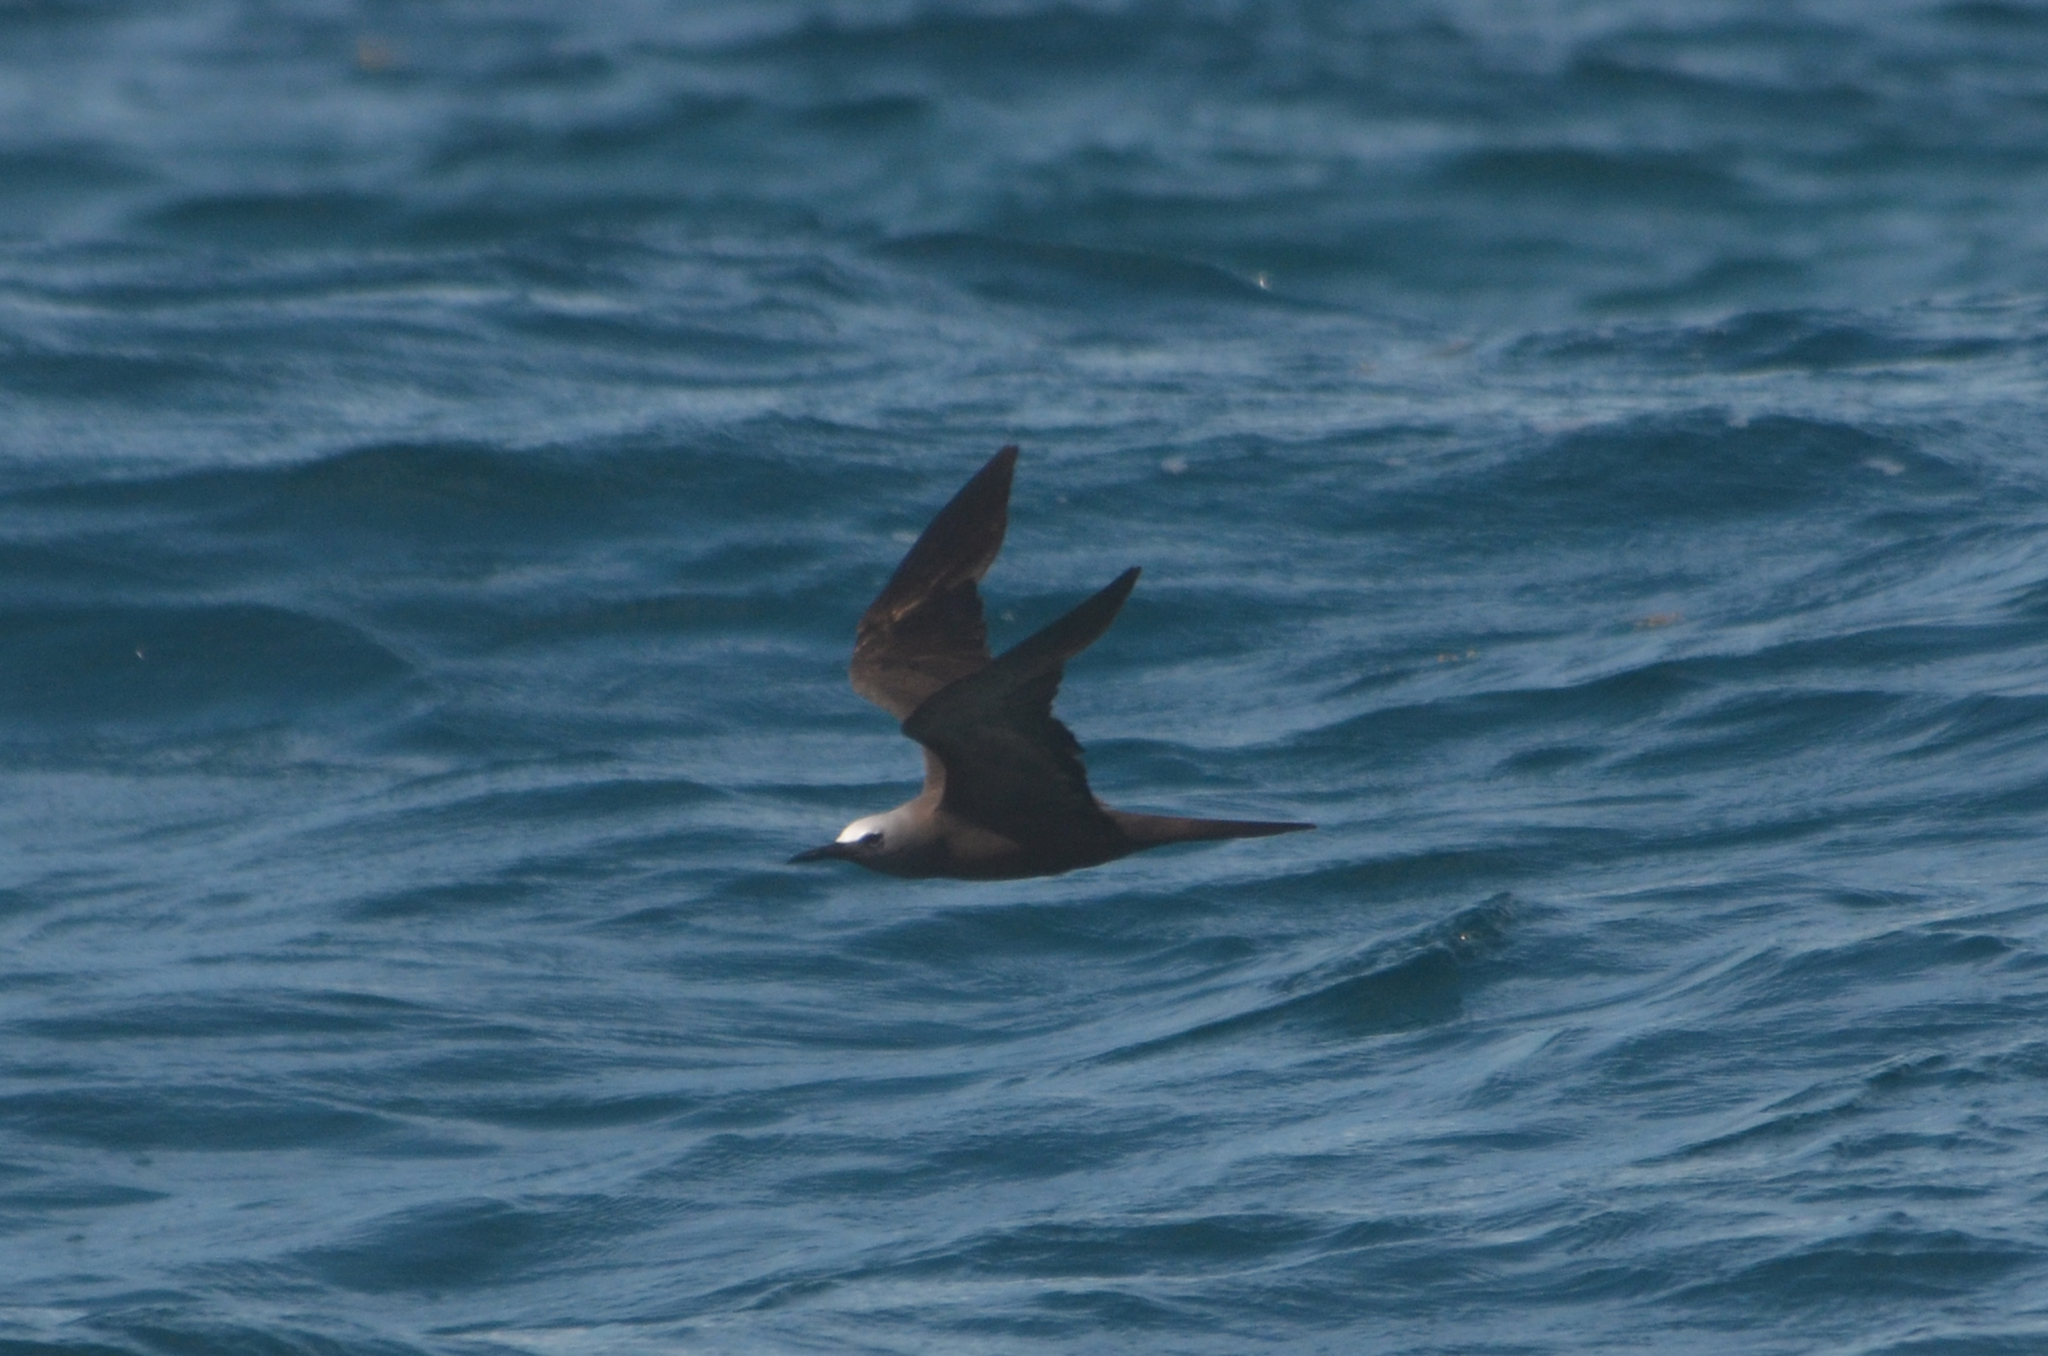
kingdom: Animalia
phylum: Chordata
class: Aves
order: Charadriiformes
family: Laridae
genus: Anous
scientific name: Anous stolidus
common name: Brown noddy
